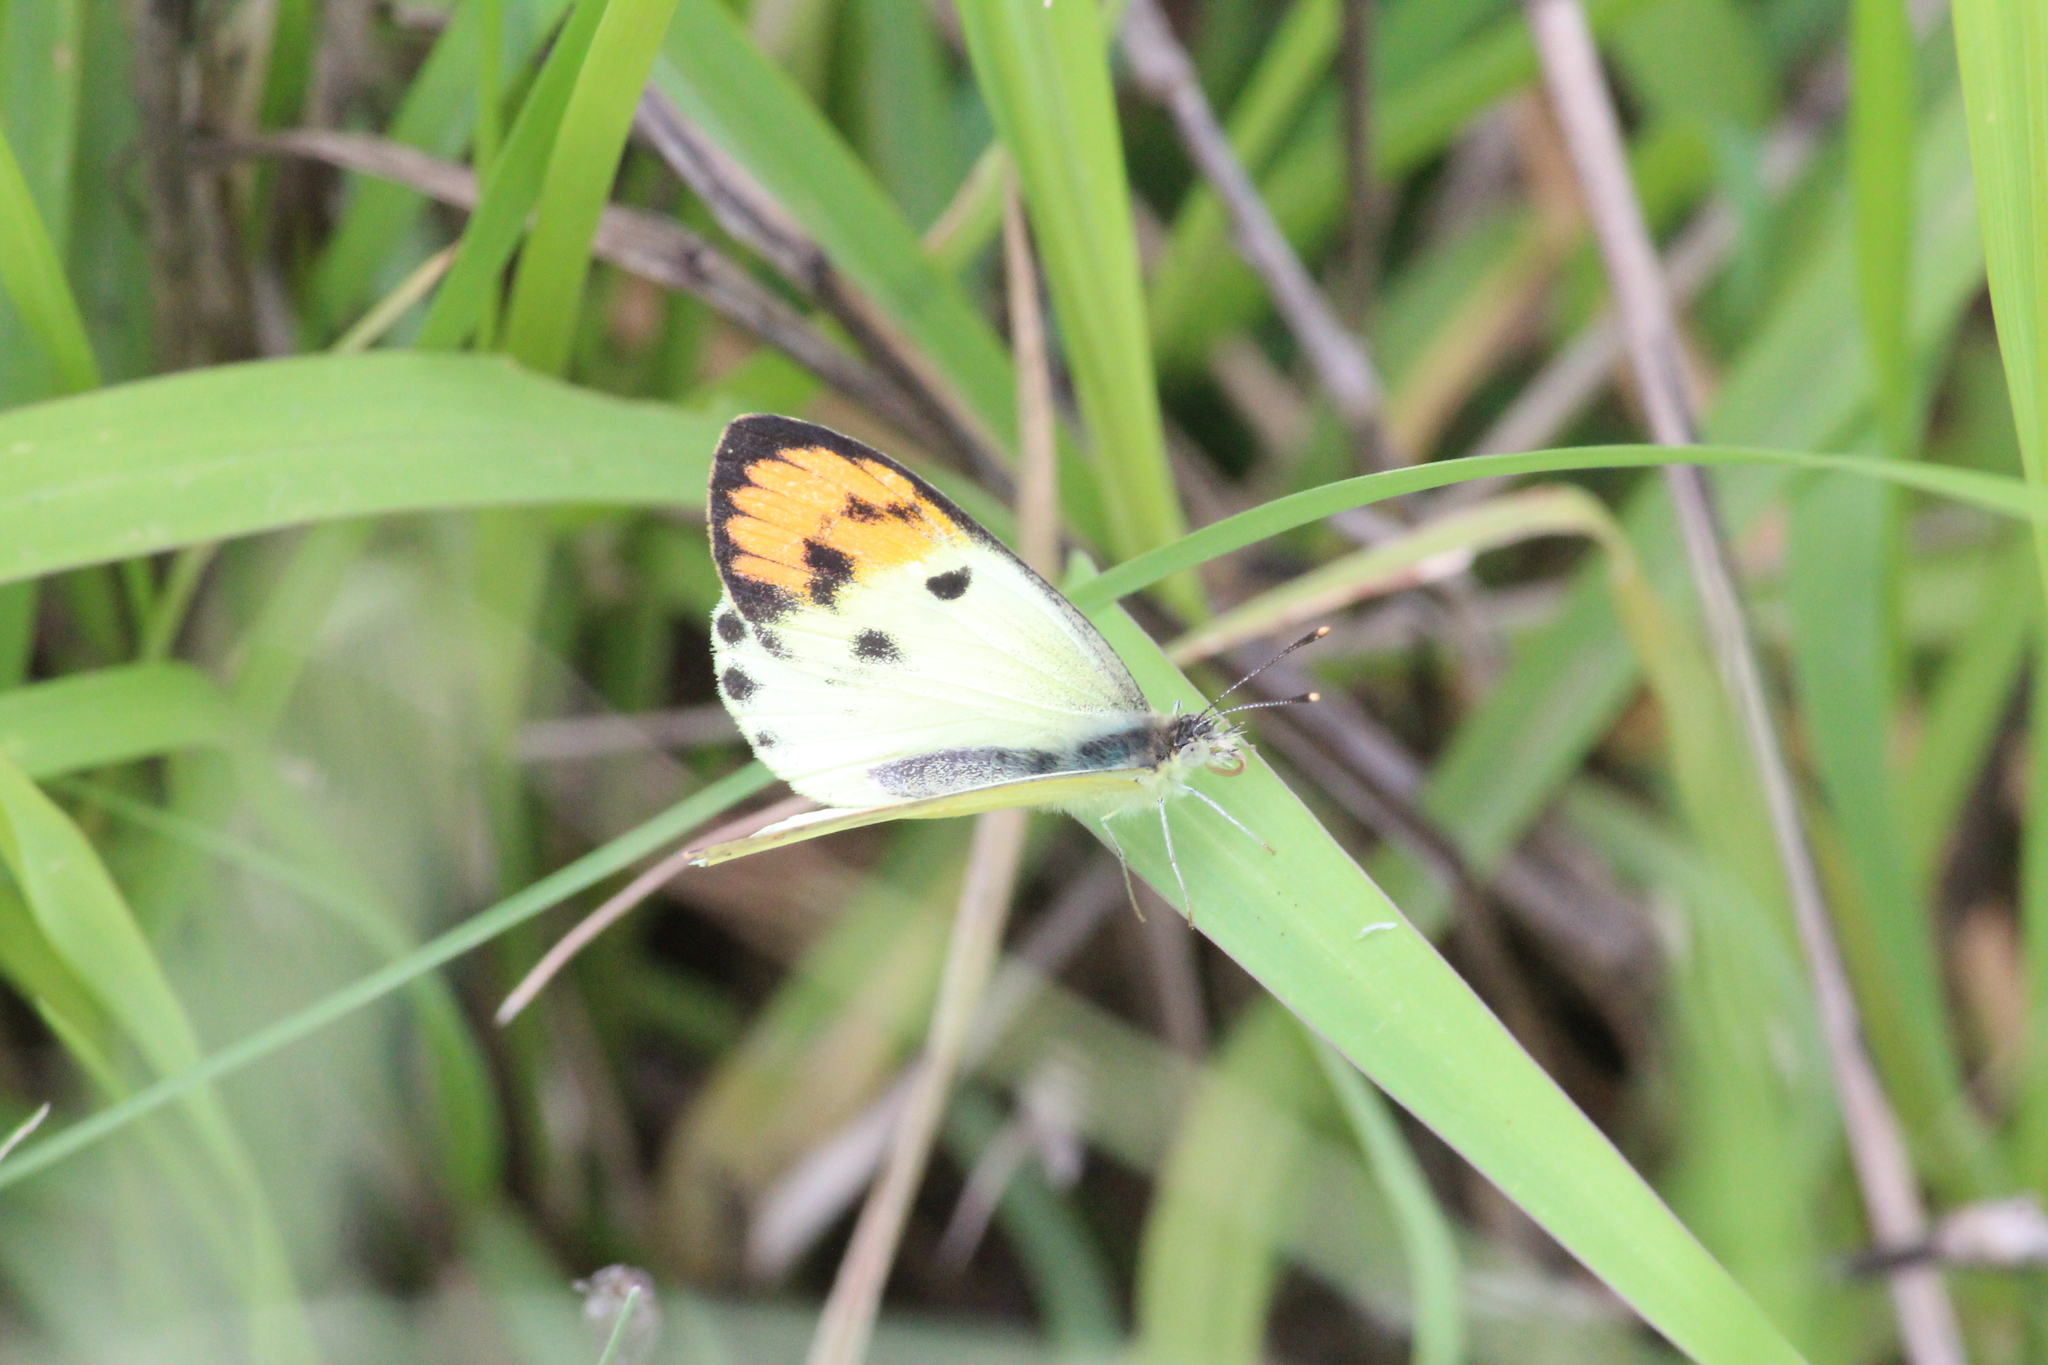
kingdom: Animalia
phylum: Arthropoda
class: Insecta
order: Lepidoptera
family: Pieridae
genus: Colotis
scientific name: Colotis auxo
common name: Sulphur orange tip
